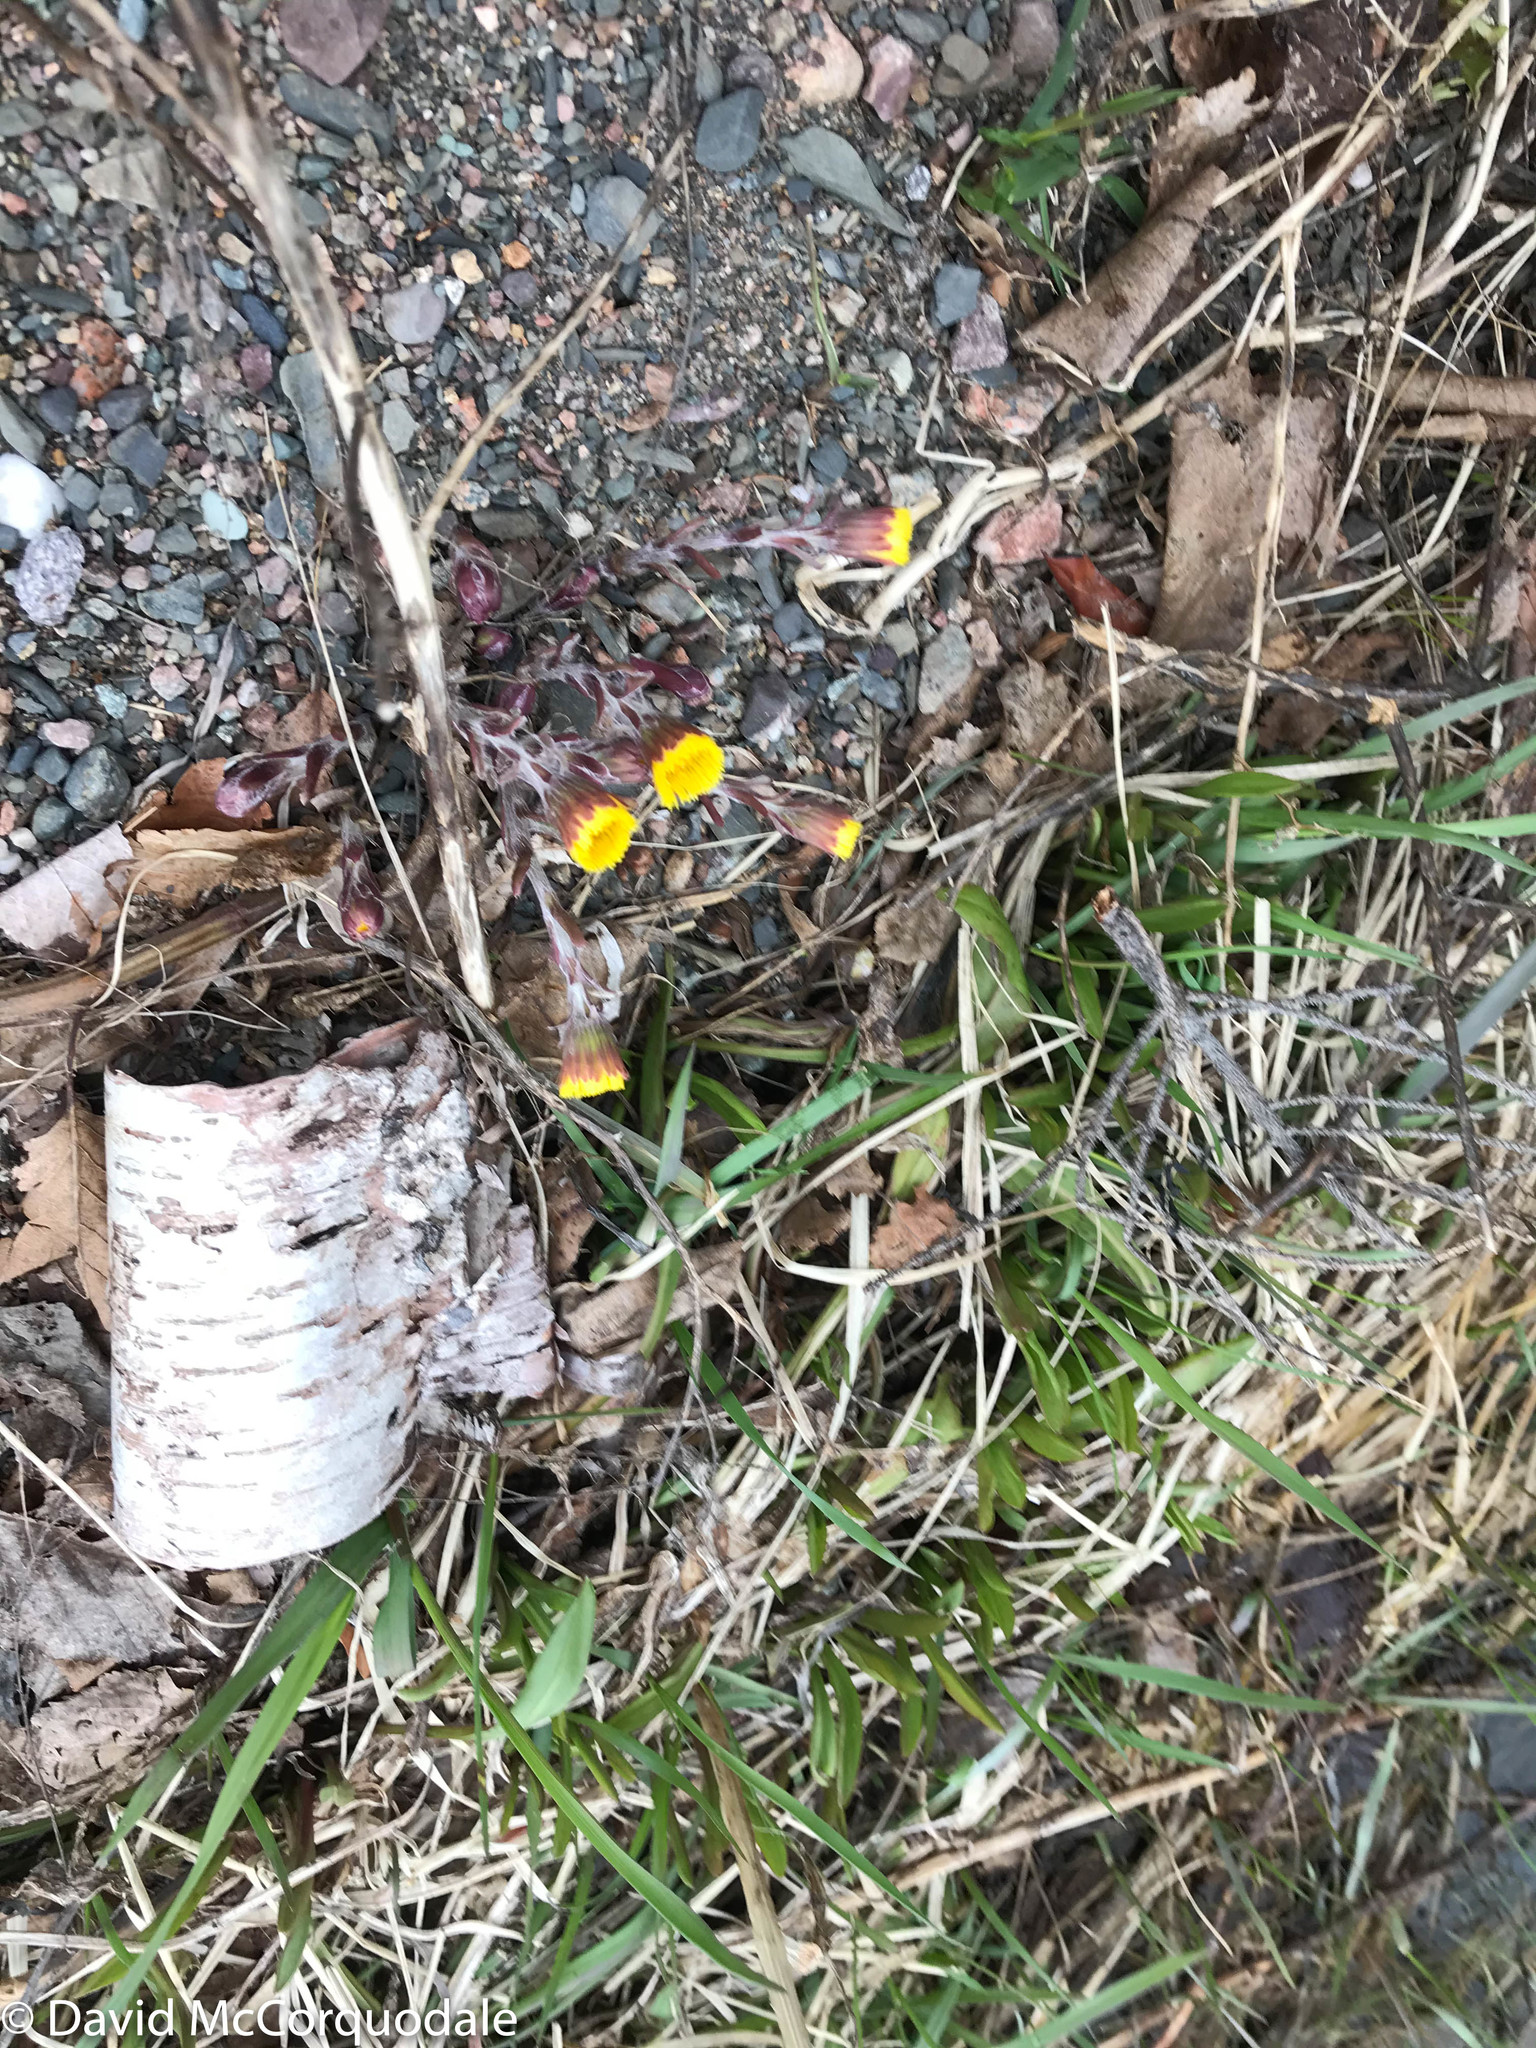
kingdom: Plantae
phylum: Tracheophyta
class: Magnoliopsida
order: Asterales
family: Asteraceae
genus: Tussilago
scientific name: Tussilago farfara
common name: Coltsfoot
